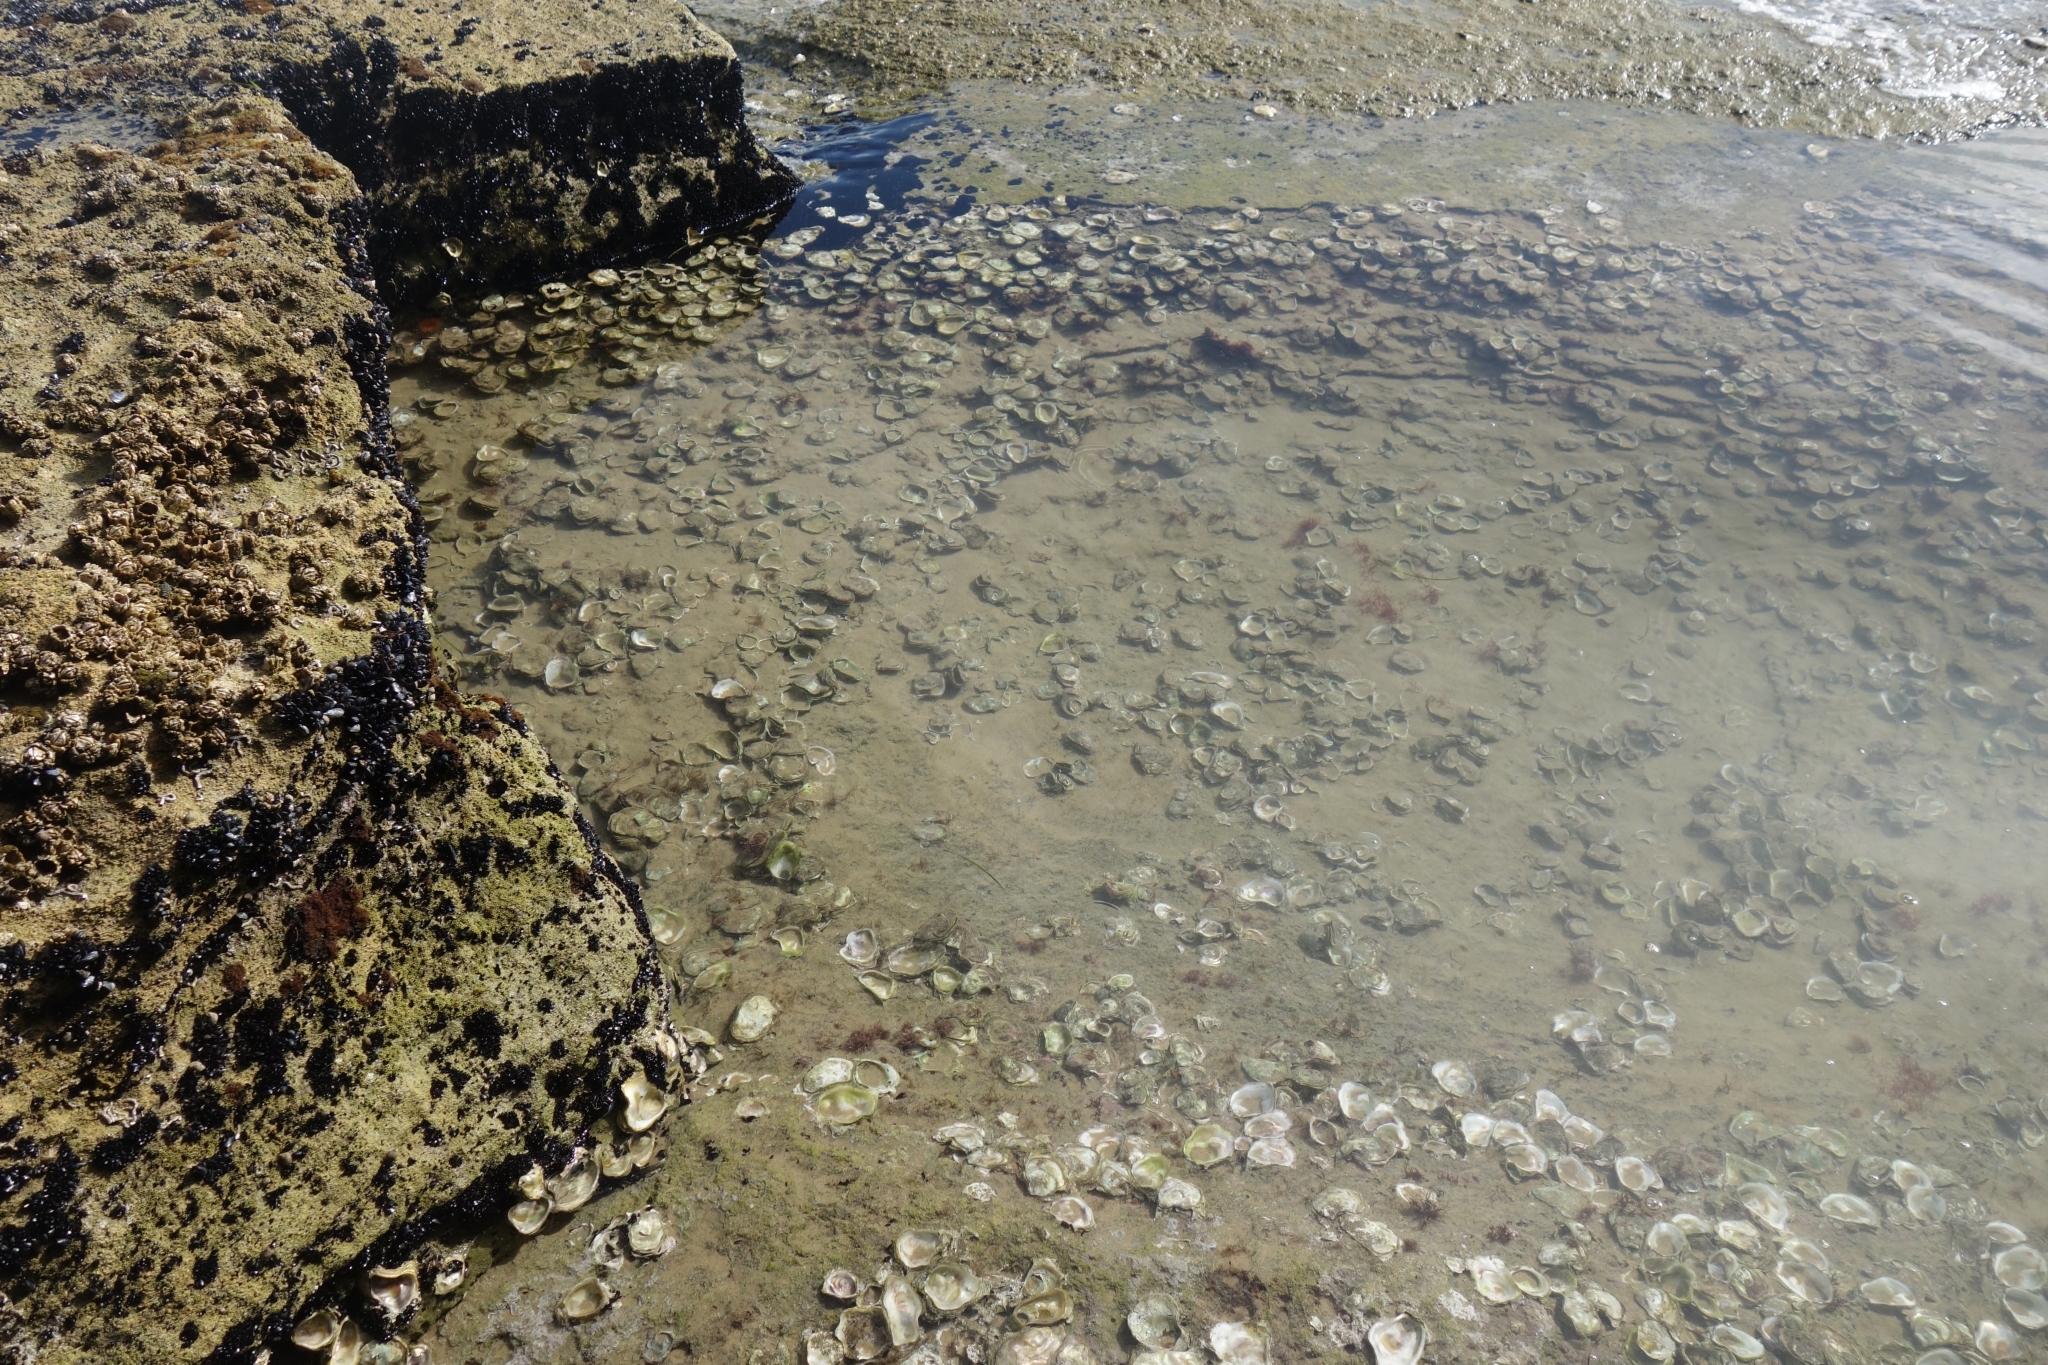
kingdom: Animalia
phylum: Mollusca
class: Bivalvia
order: Ostreida
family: Ostreidae
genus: Striostrea
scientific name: Striostrea margaritacea
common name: Cape rock oyster
